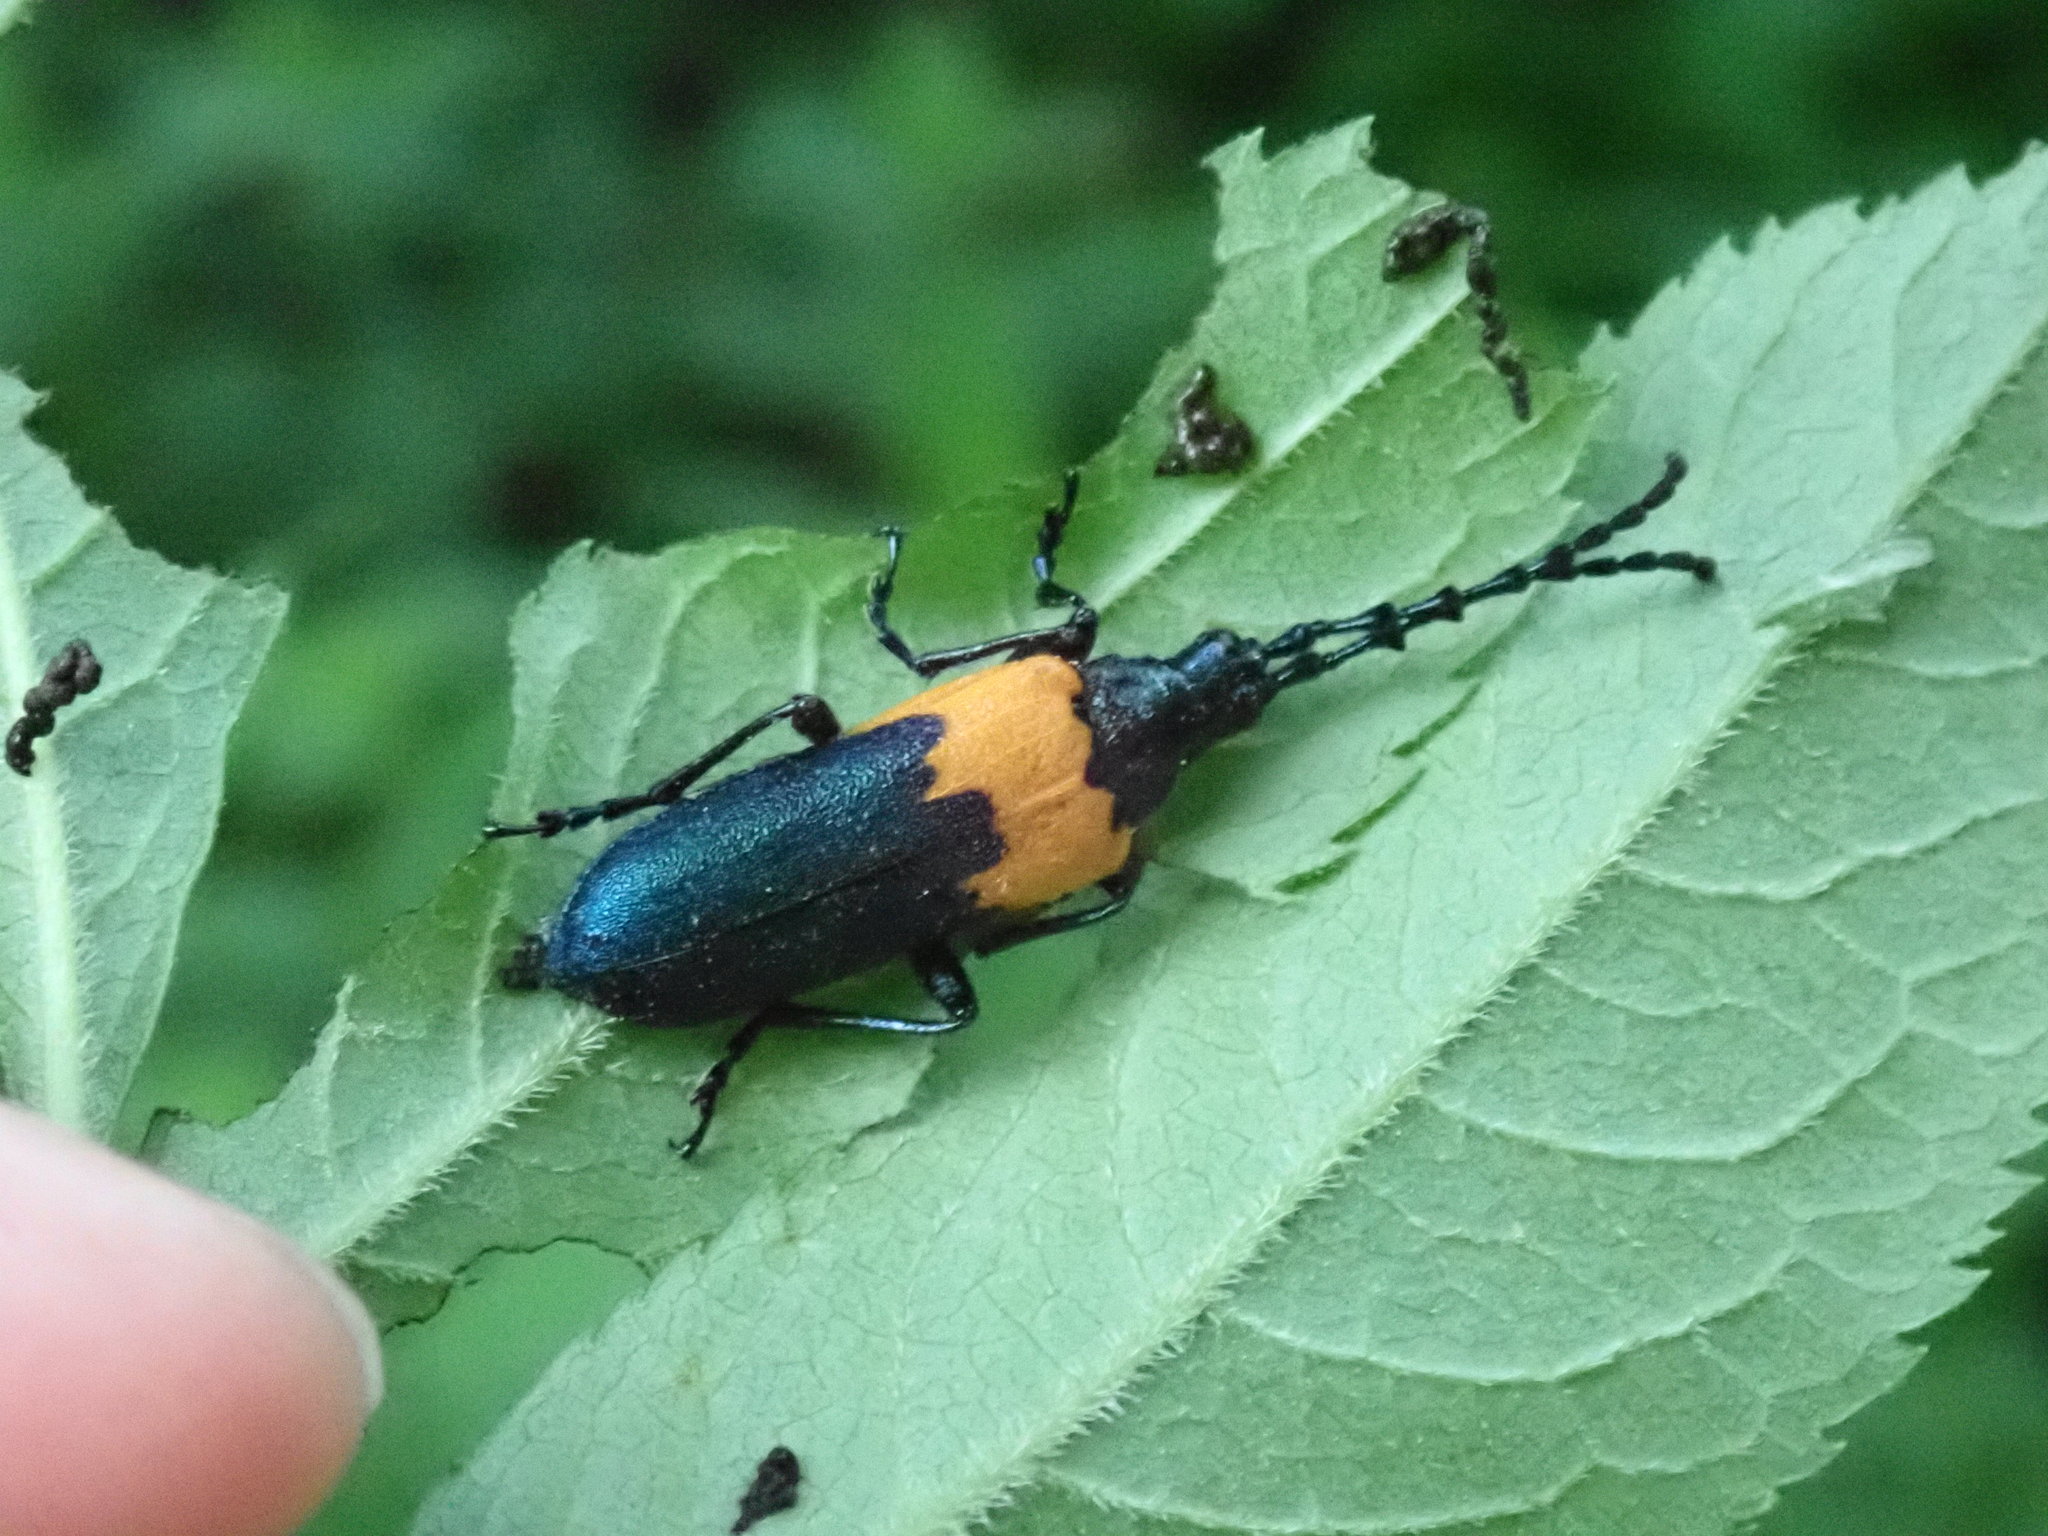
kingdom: Animalia
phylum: Arthropoda
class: Insecta
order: Coleoptera
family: Cerambycidae
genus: Desmocerus
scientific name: Desmocerus palliatus
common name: Eastern elderberry borer
